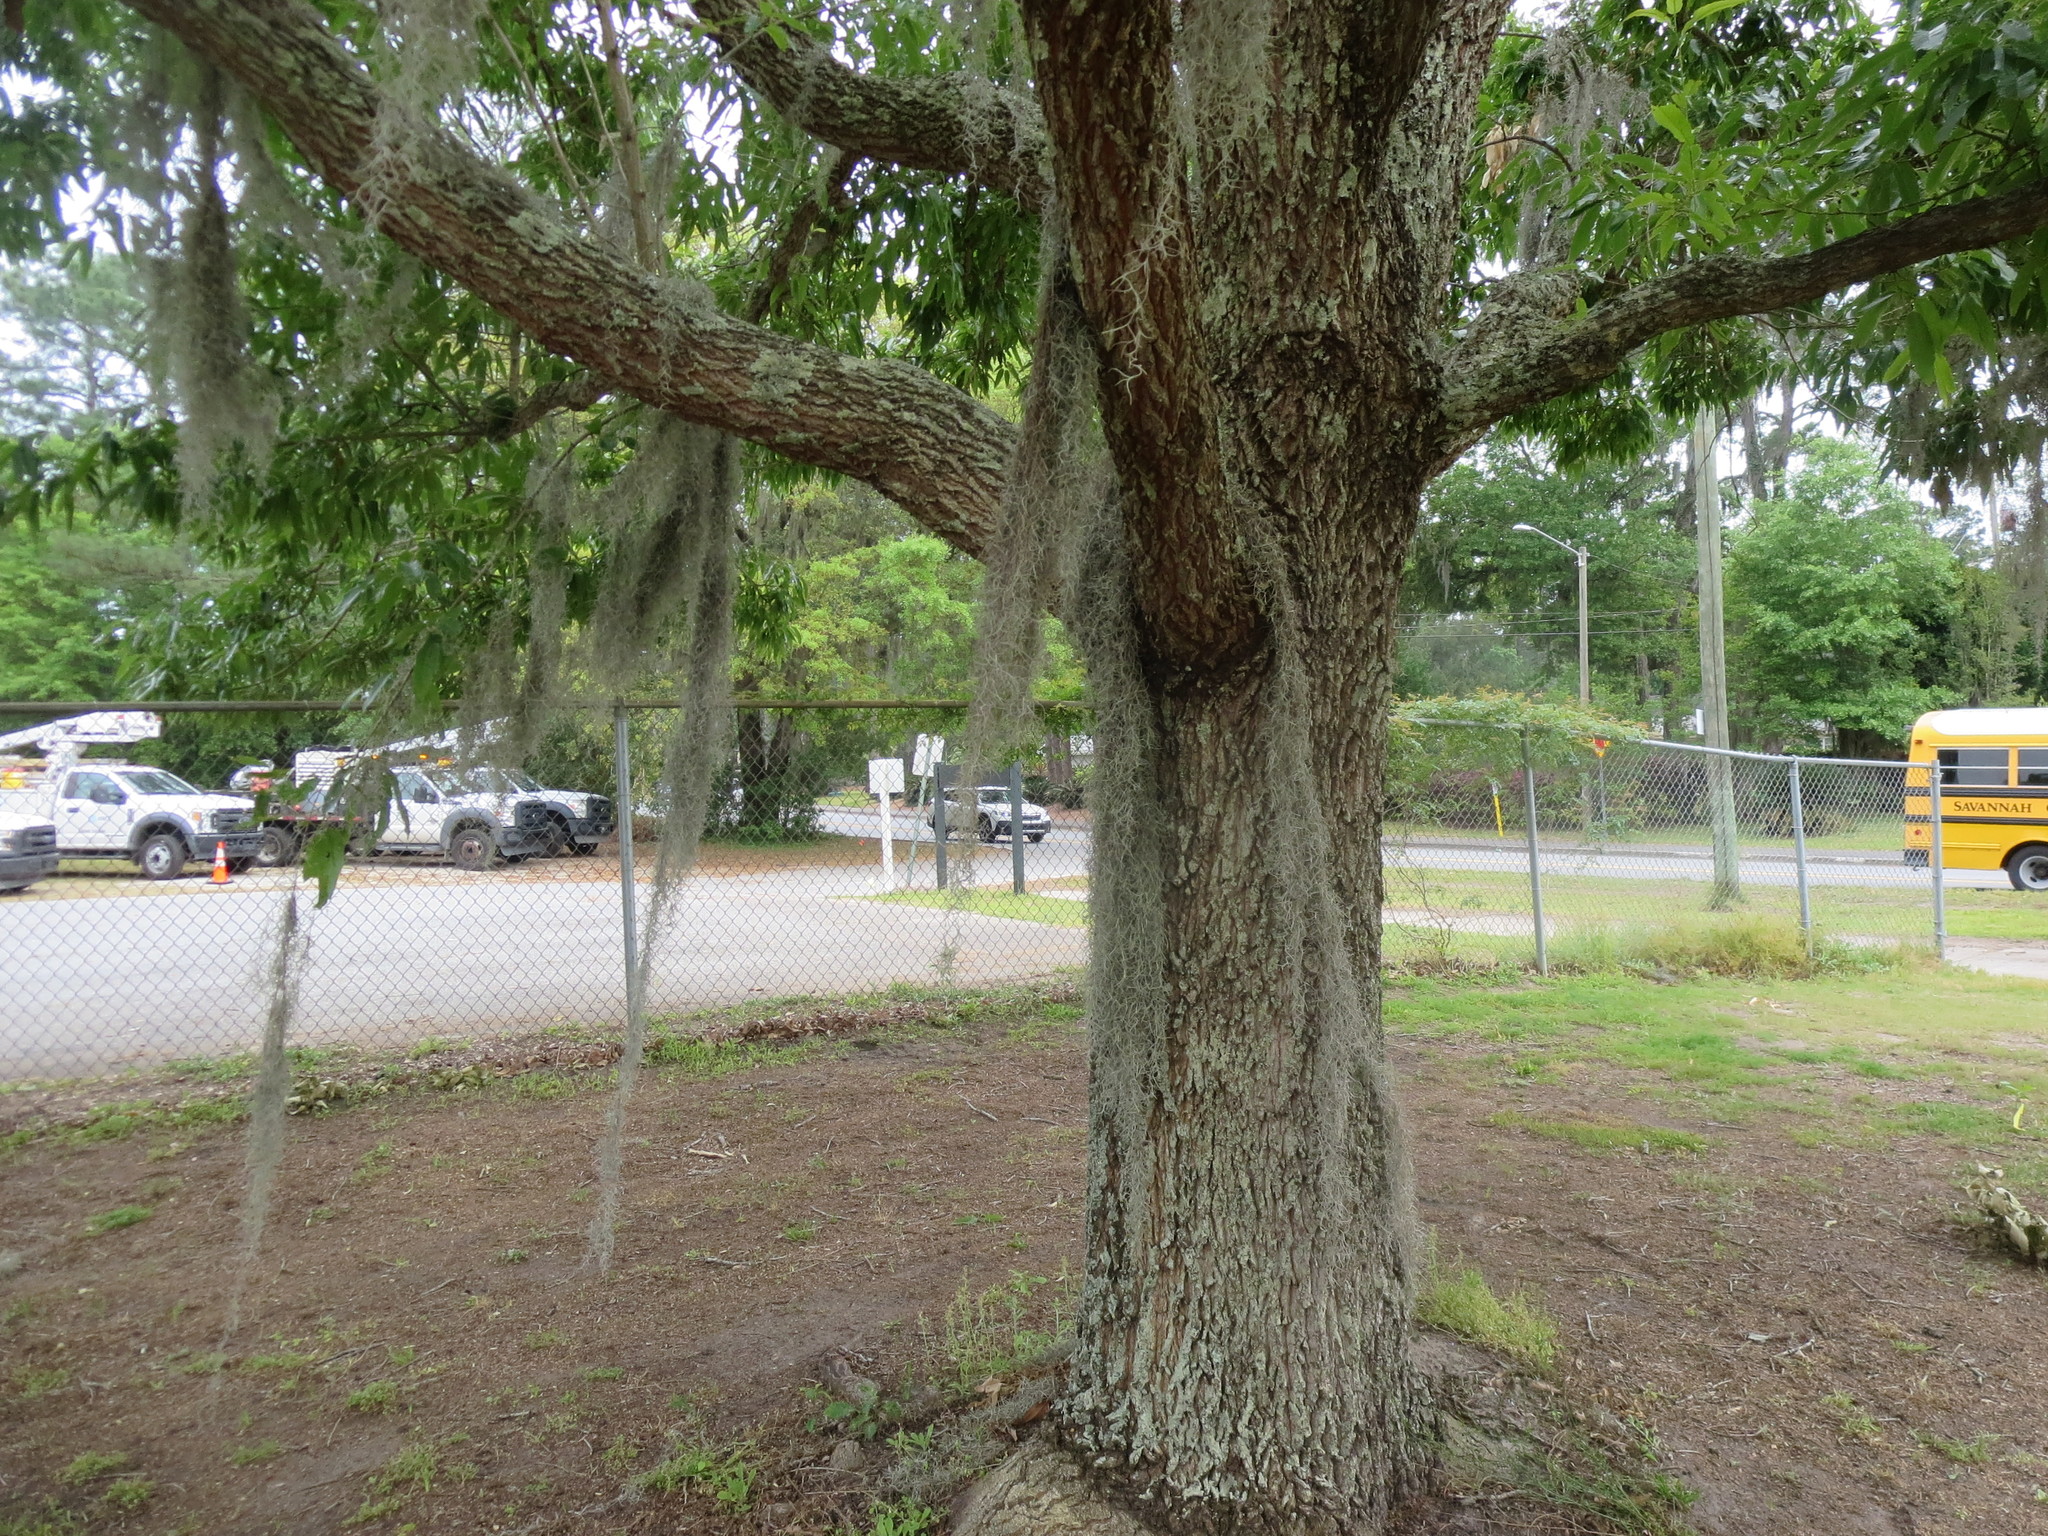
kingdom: Plantae
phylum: Tracheophyta
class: Liliopsida
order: Poales
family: Bromeliaceae
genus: Tillandsia
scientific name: Tillandsia usneoides
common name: Spanish moss
